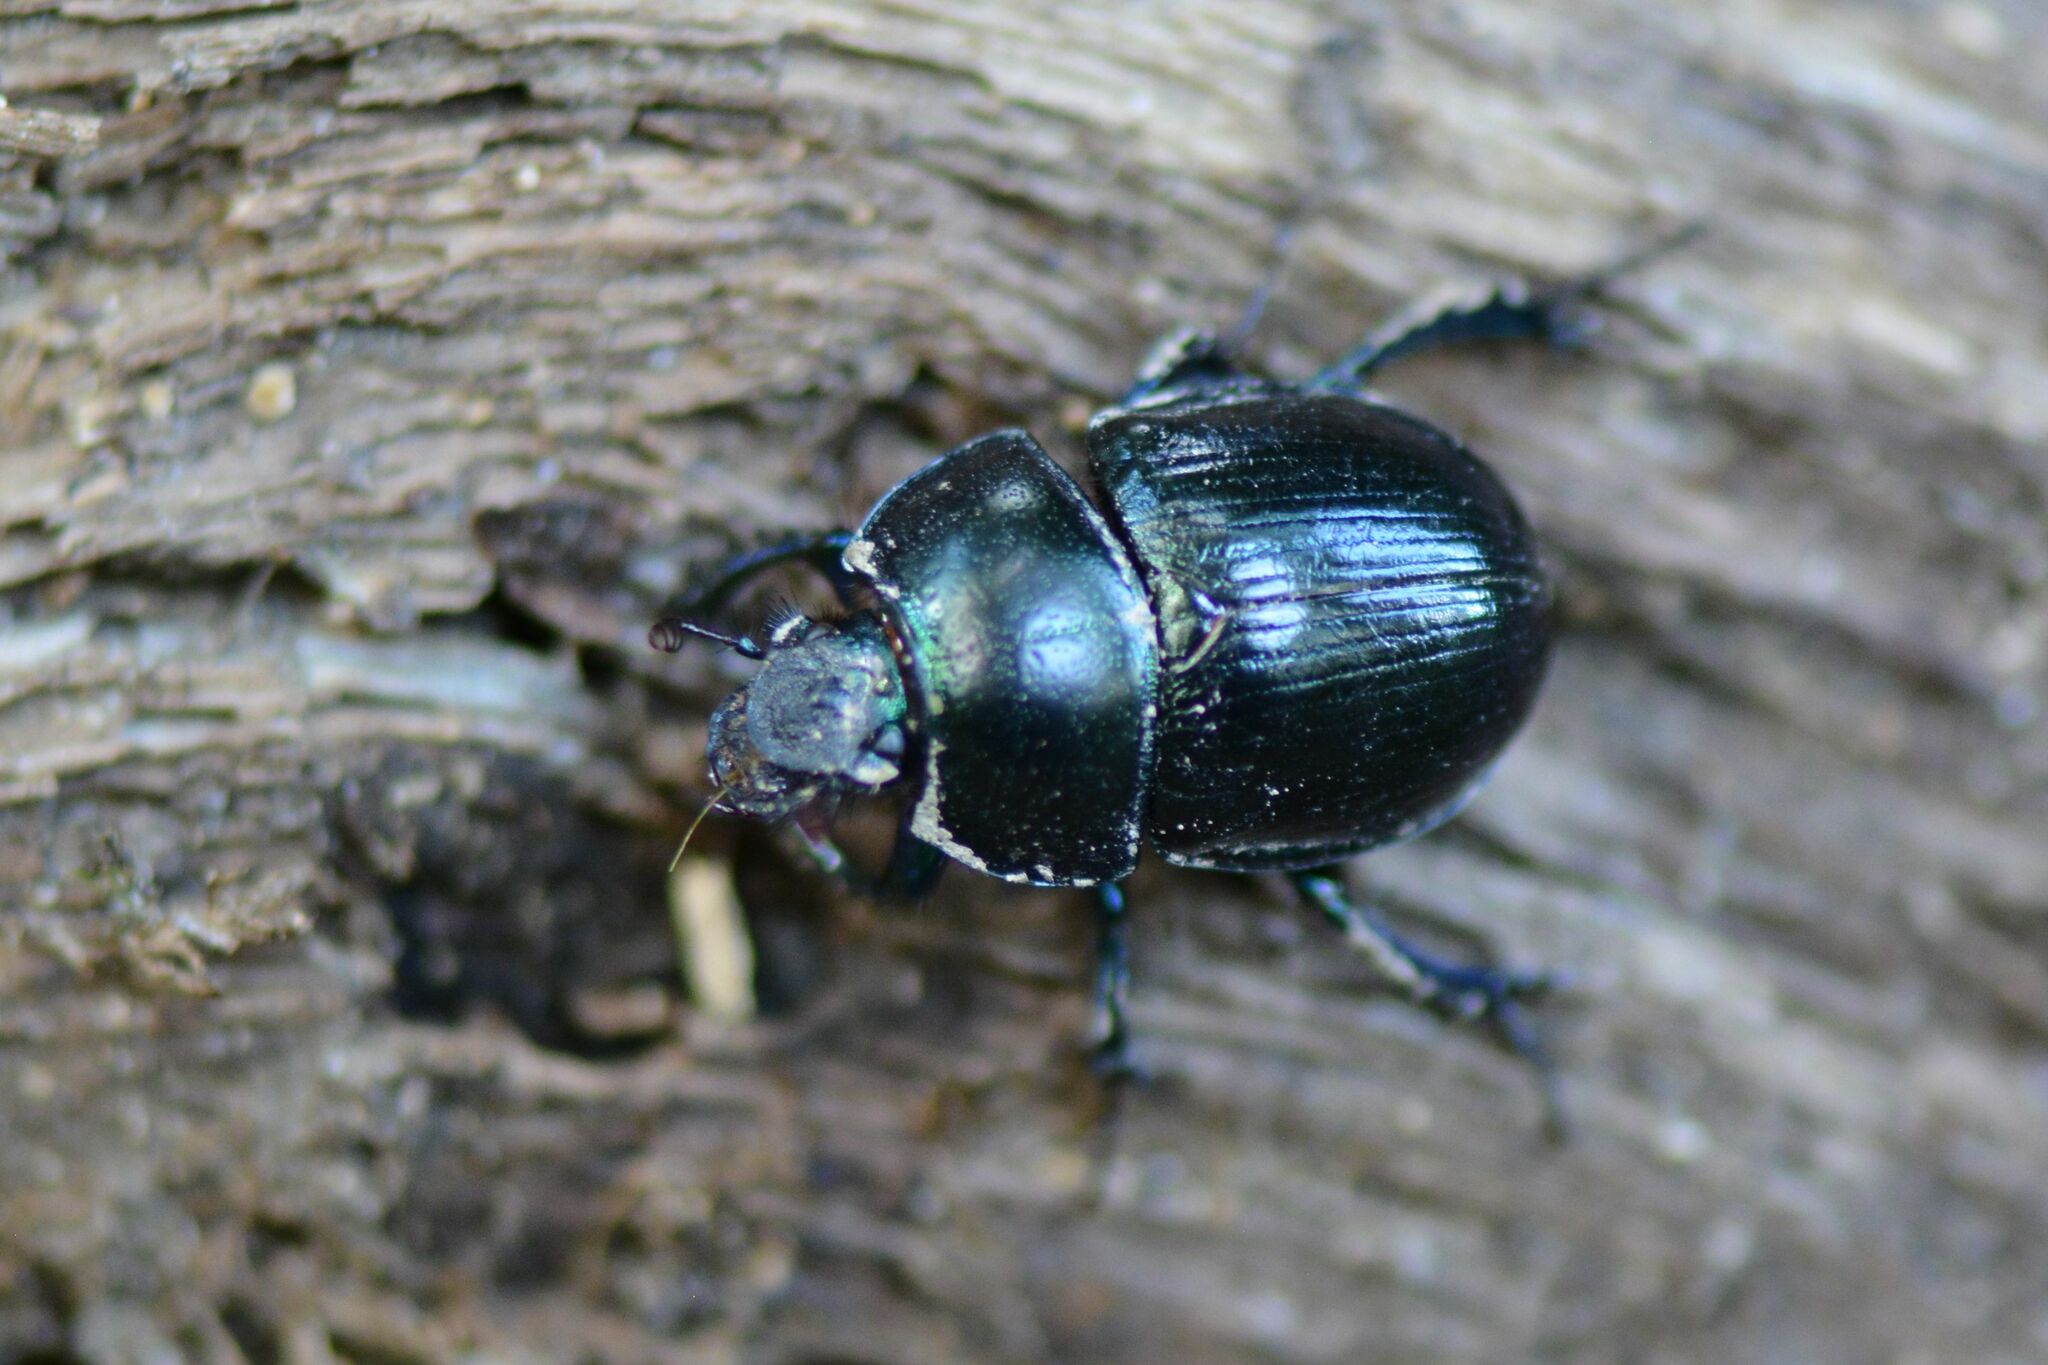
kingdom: Animalia
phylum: Arthropoda
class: Insecta
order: Coleoptera
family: Geotrupidae
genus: Anoplotrupes
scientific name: Anoplotrupes stercorosus
